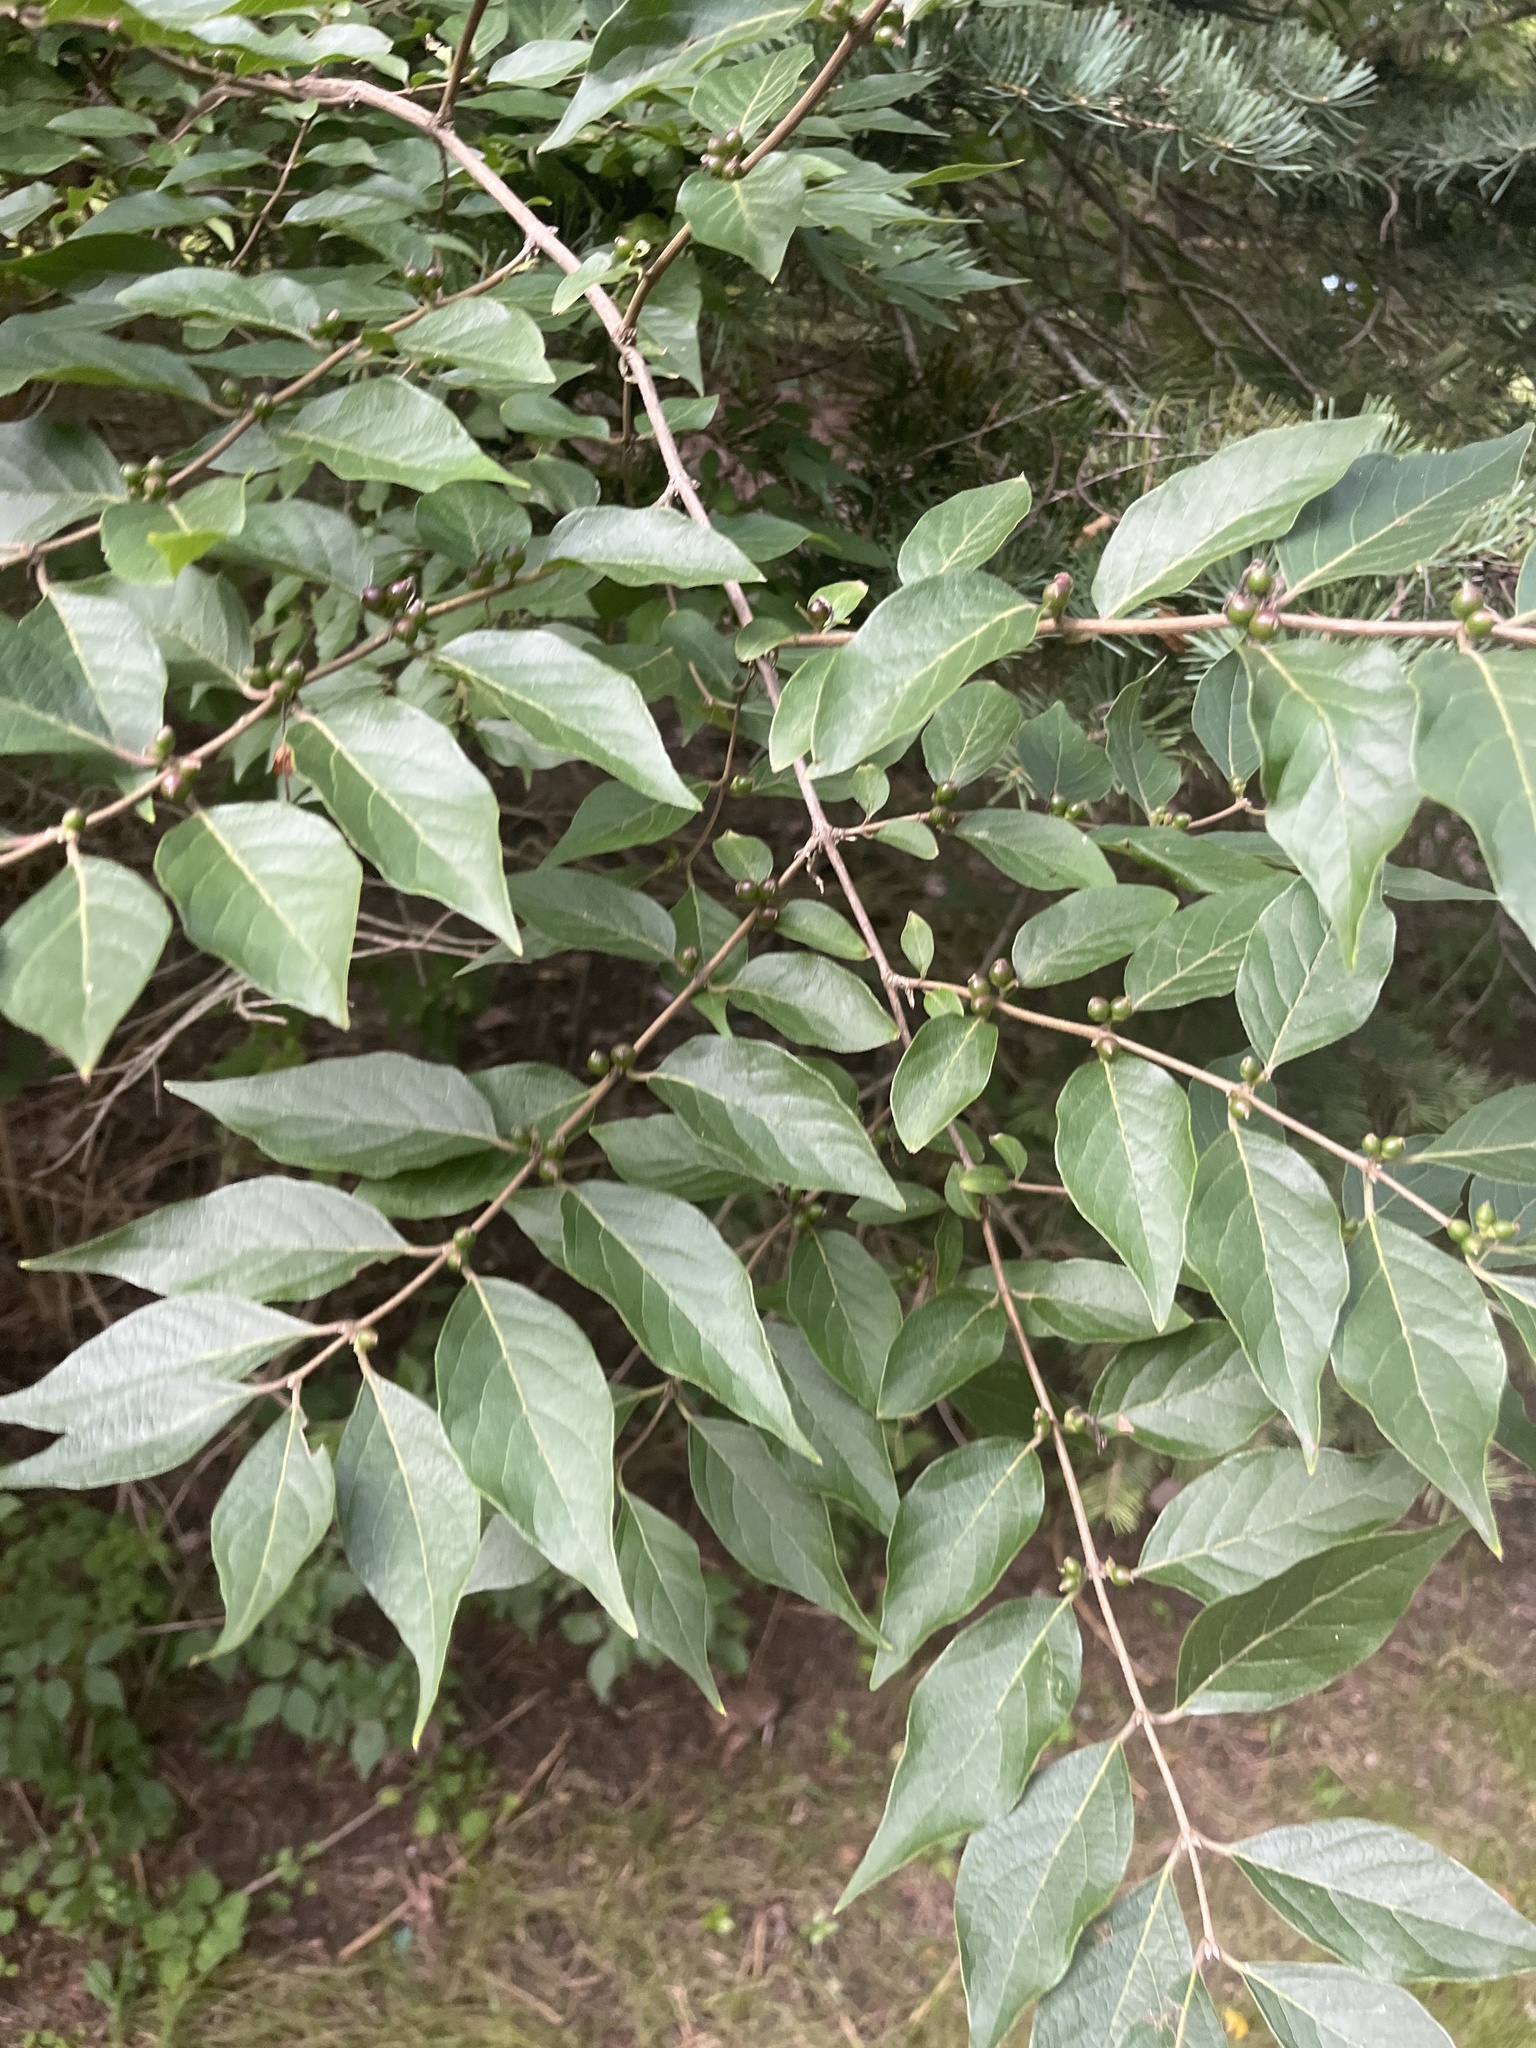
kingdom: Plantae
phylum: Tracheophyta
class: Magnoliopsida
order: Dipsacales
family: Caprifoliaceae
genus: Lonicera
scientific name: Lonicera maackii
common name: Amur honeysuckle
